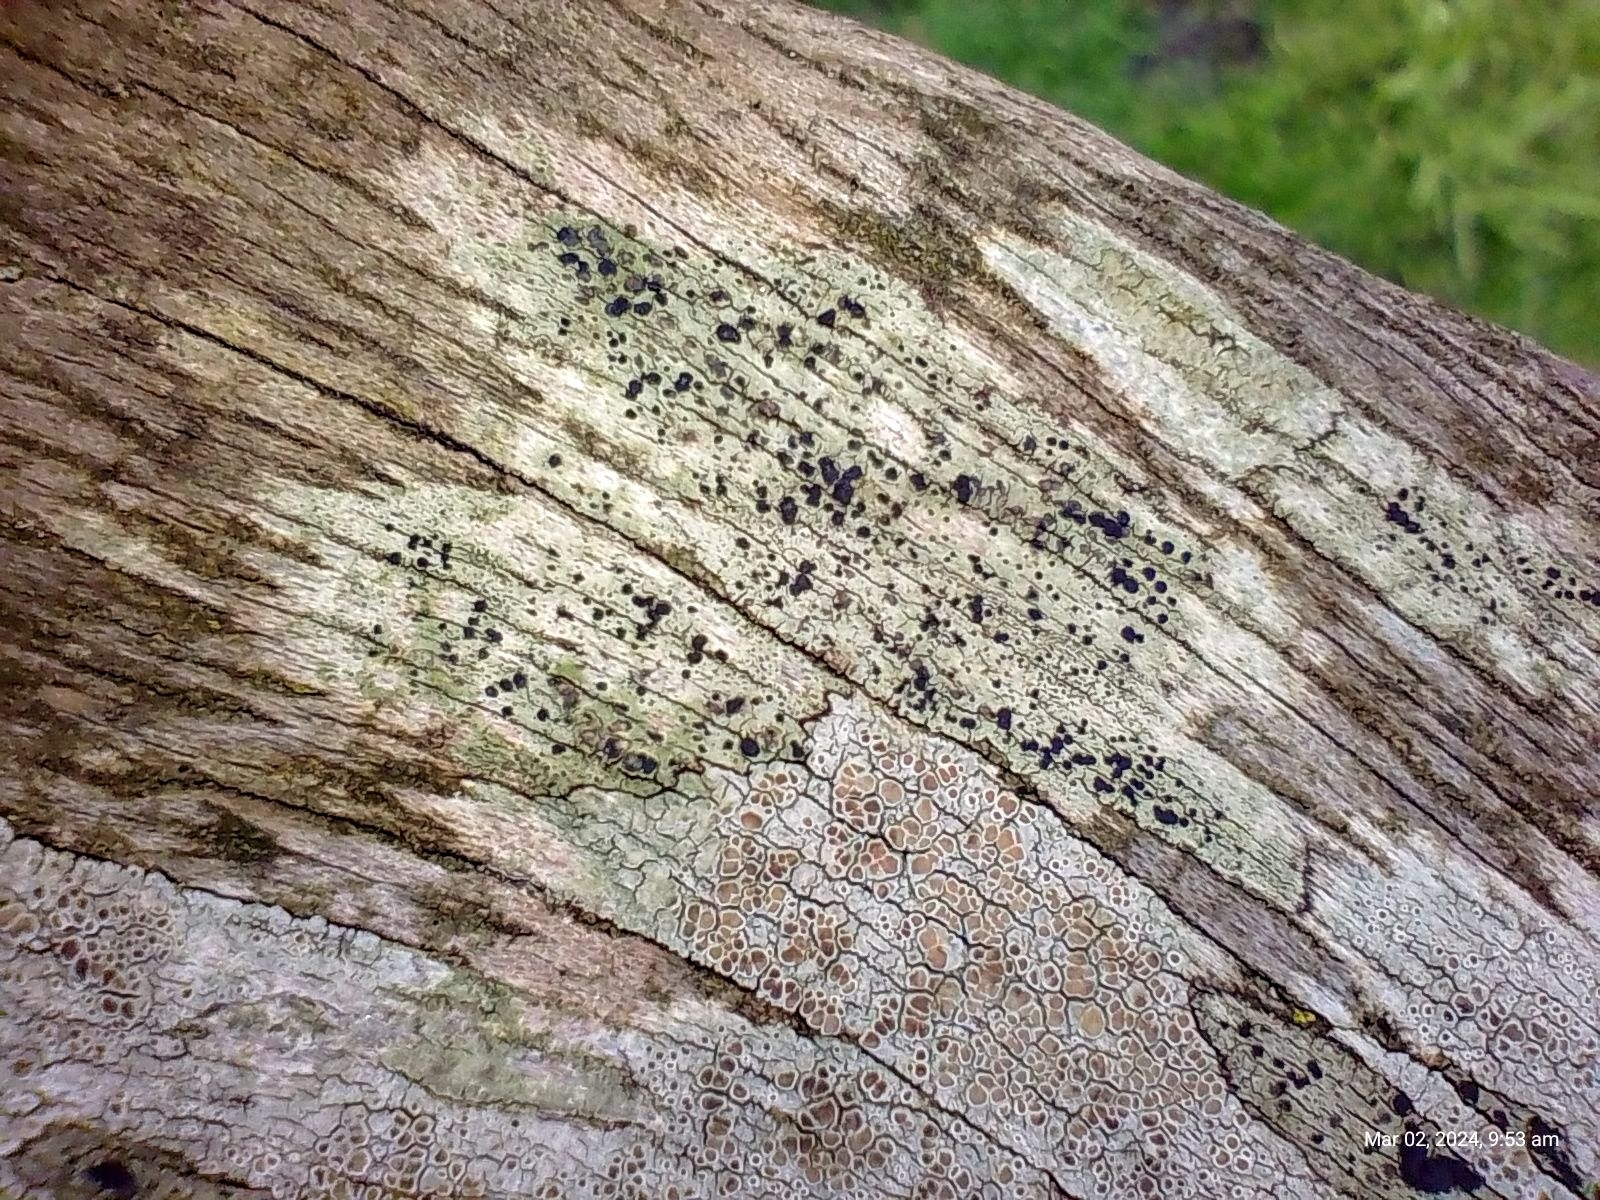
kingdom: Fungi
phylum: Ascomycota
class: Lecanoromycetes
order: Lecanorales
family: Lecanoraceae
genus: Lecidella
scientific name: Lecidella elaeochroma
